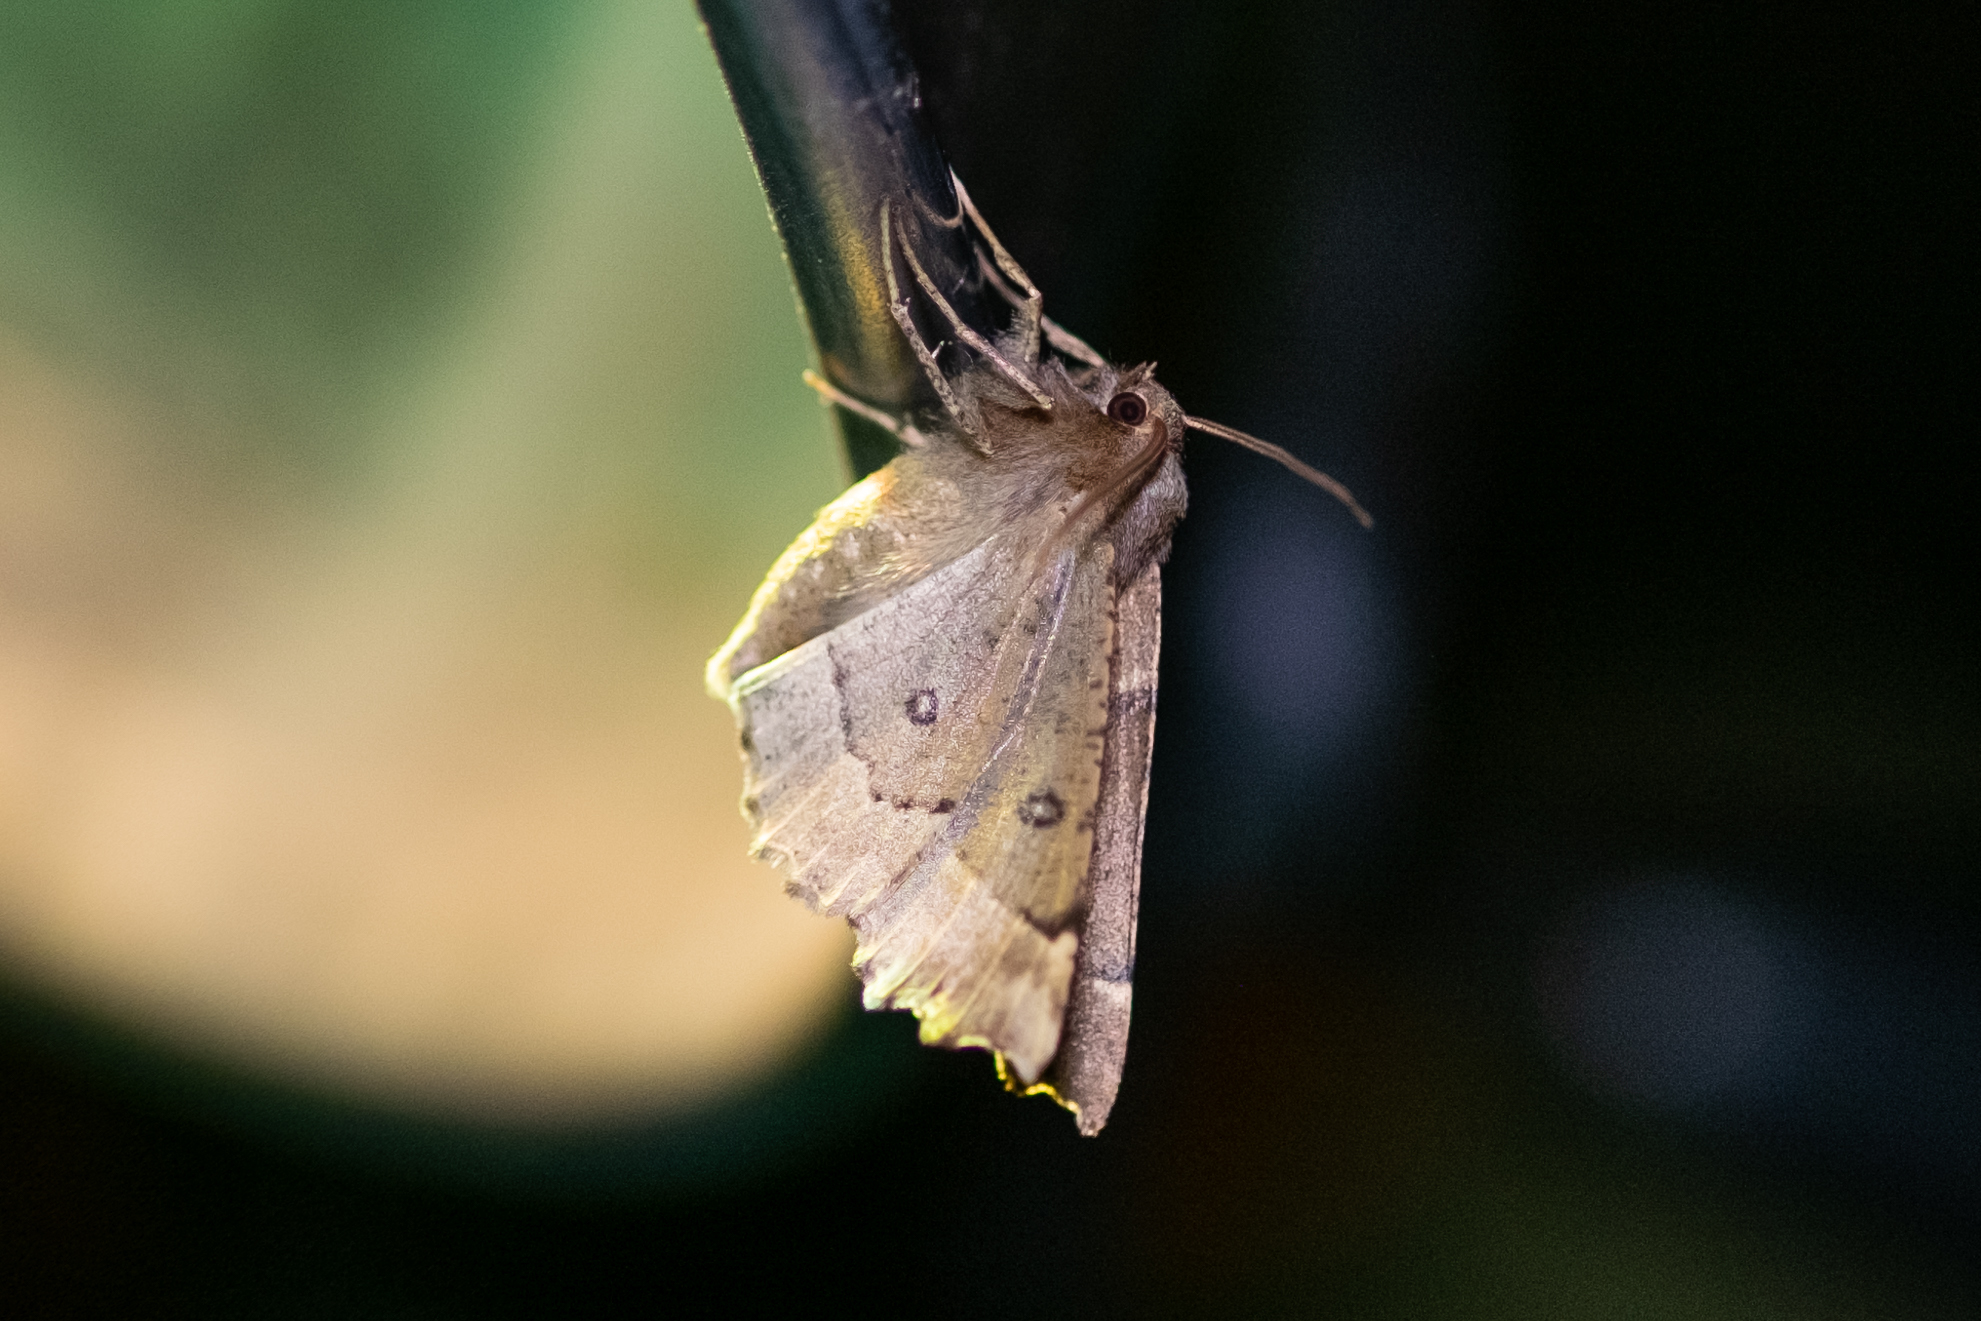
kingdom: Animalia
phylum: Arthropoda
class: Insecta
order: Lepidoptera
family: Geometridae
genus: Odontopera
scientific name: Odontopera bidentata
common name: Scalloped hazel
